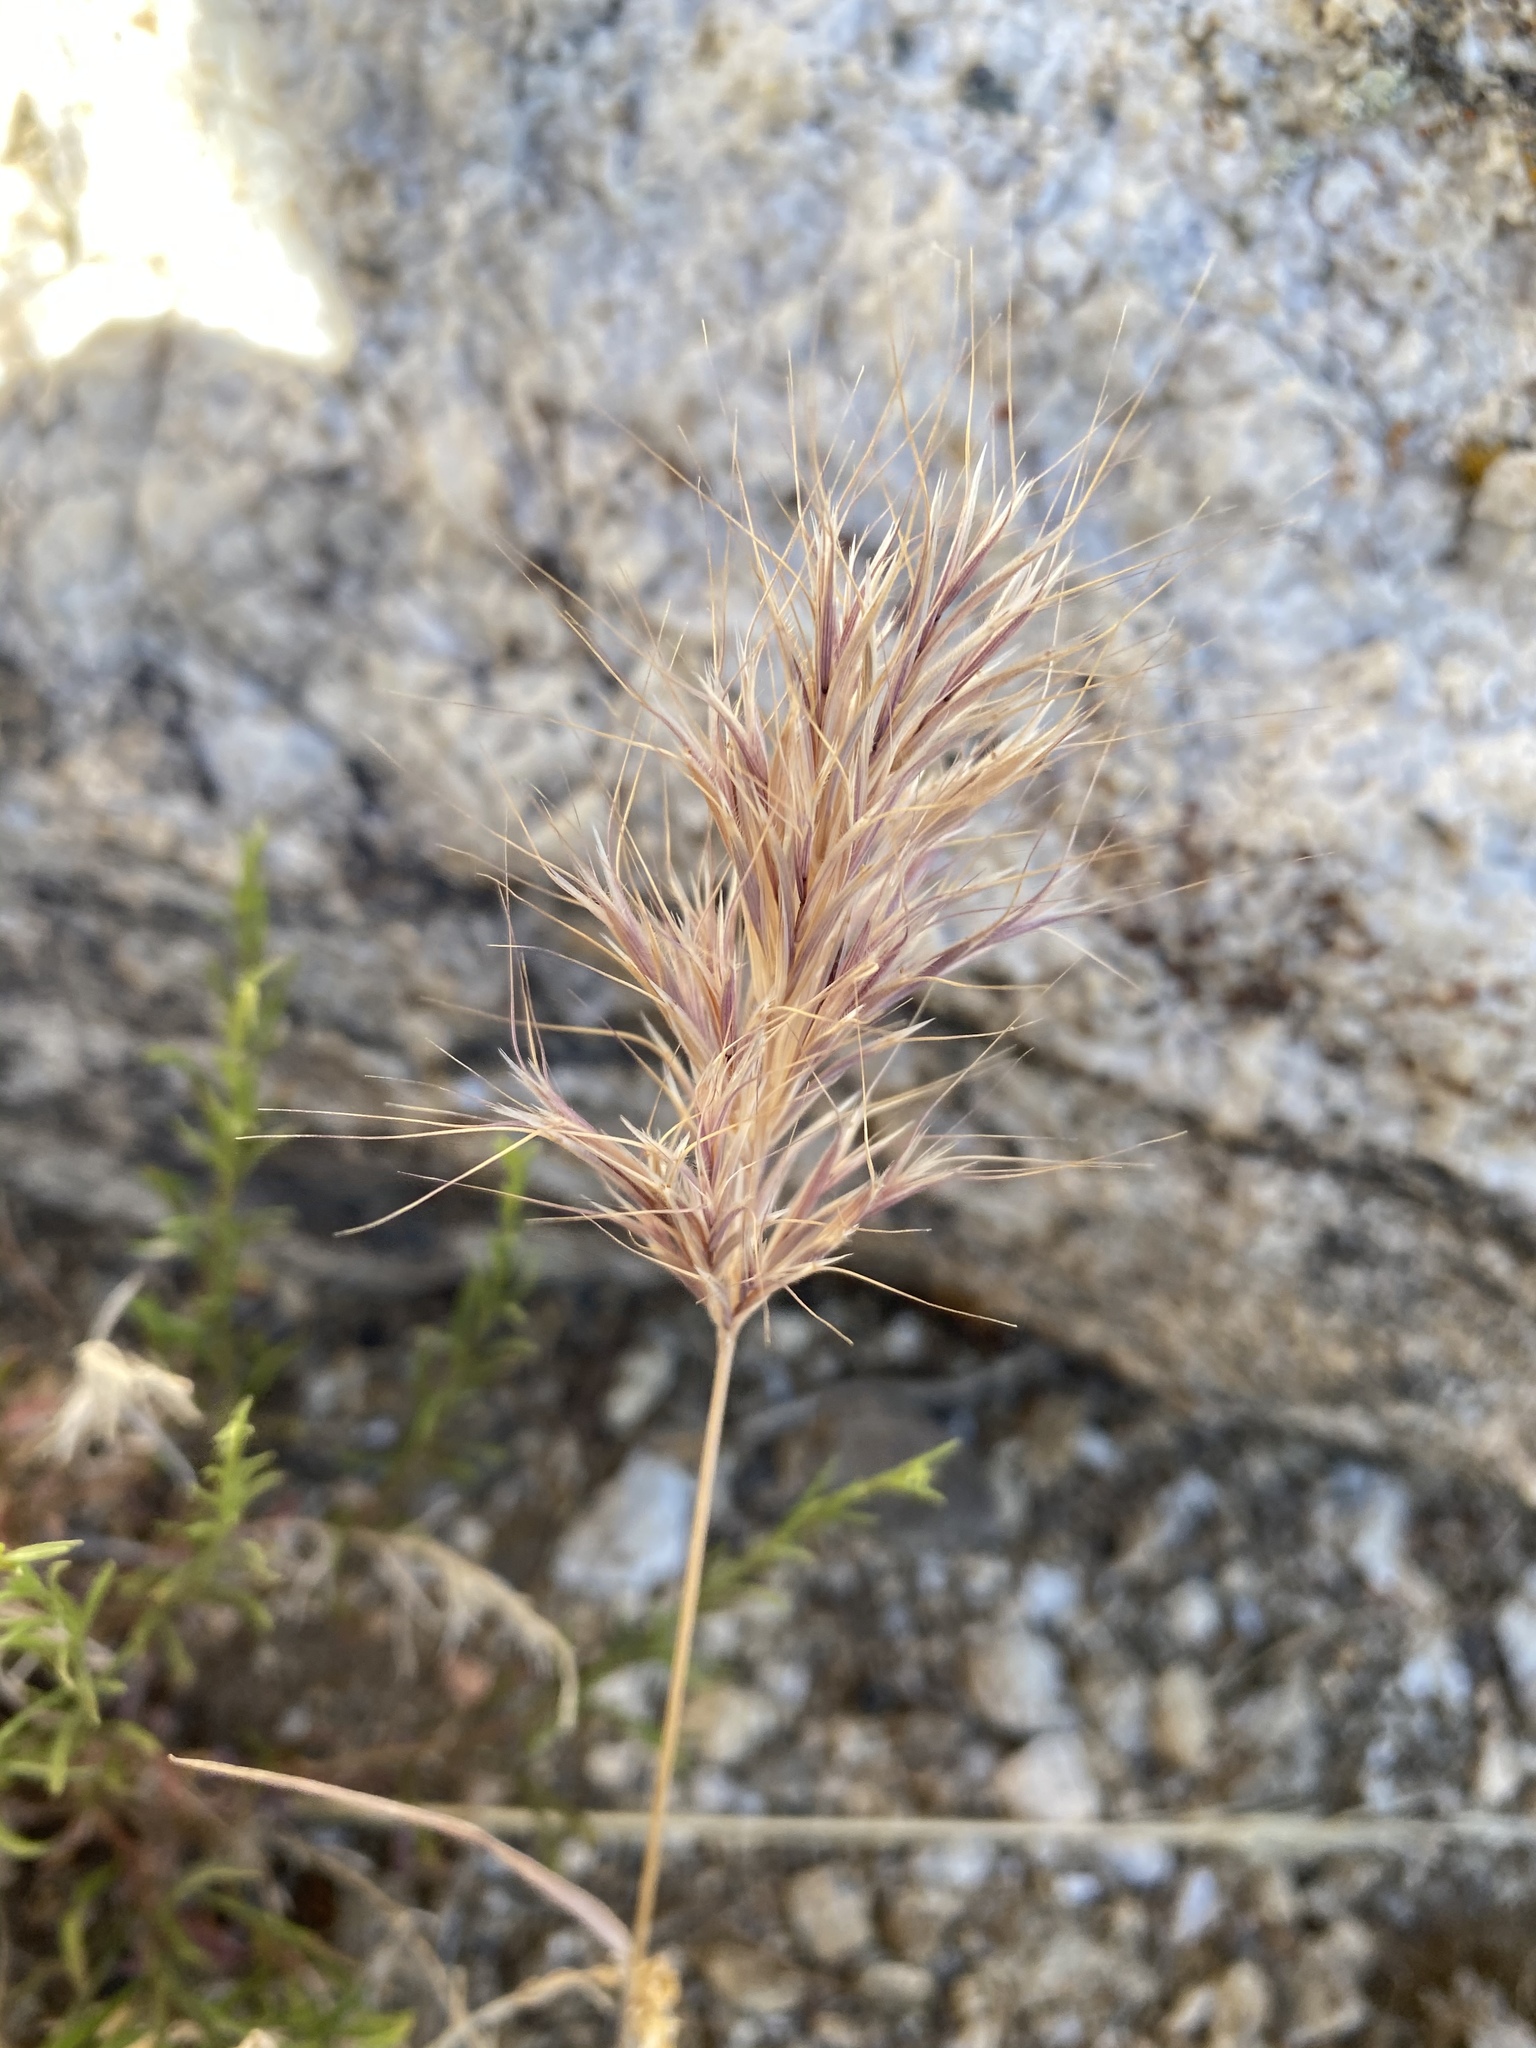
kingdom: Plantae
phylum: Tracheophyta
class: Liliopsida
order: Poales
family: Poaceae
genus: Bromus
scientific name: Bromus rubens
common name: Red brome
